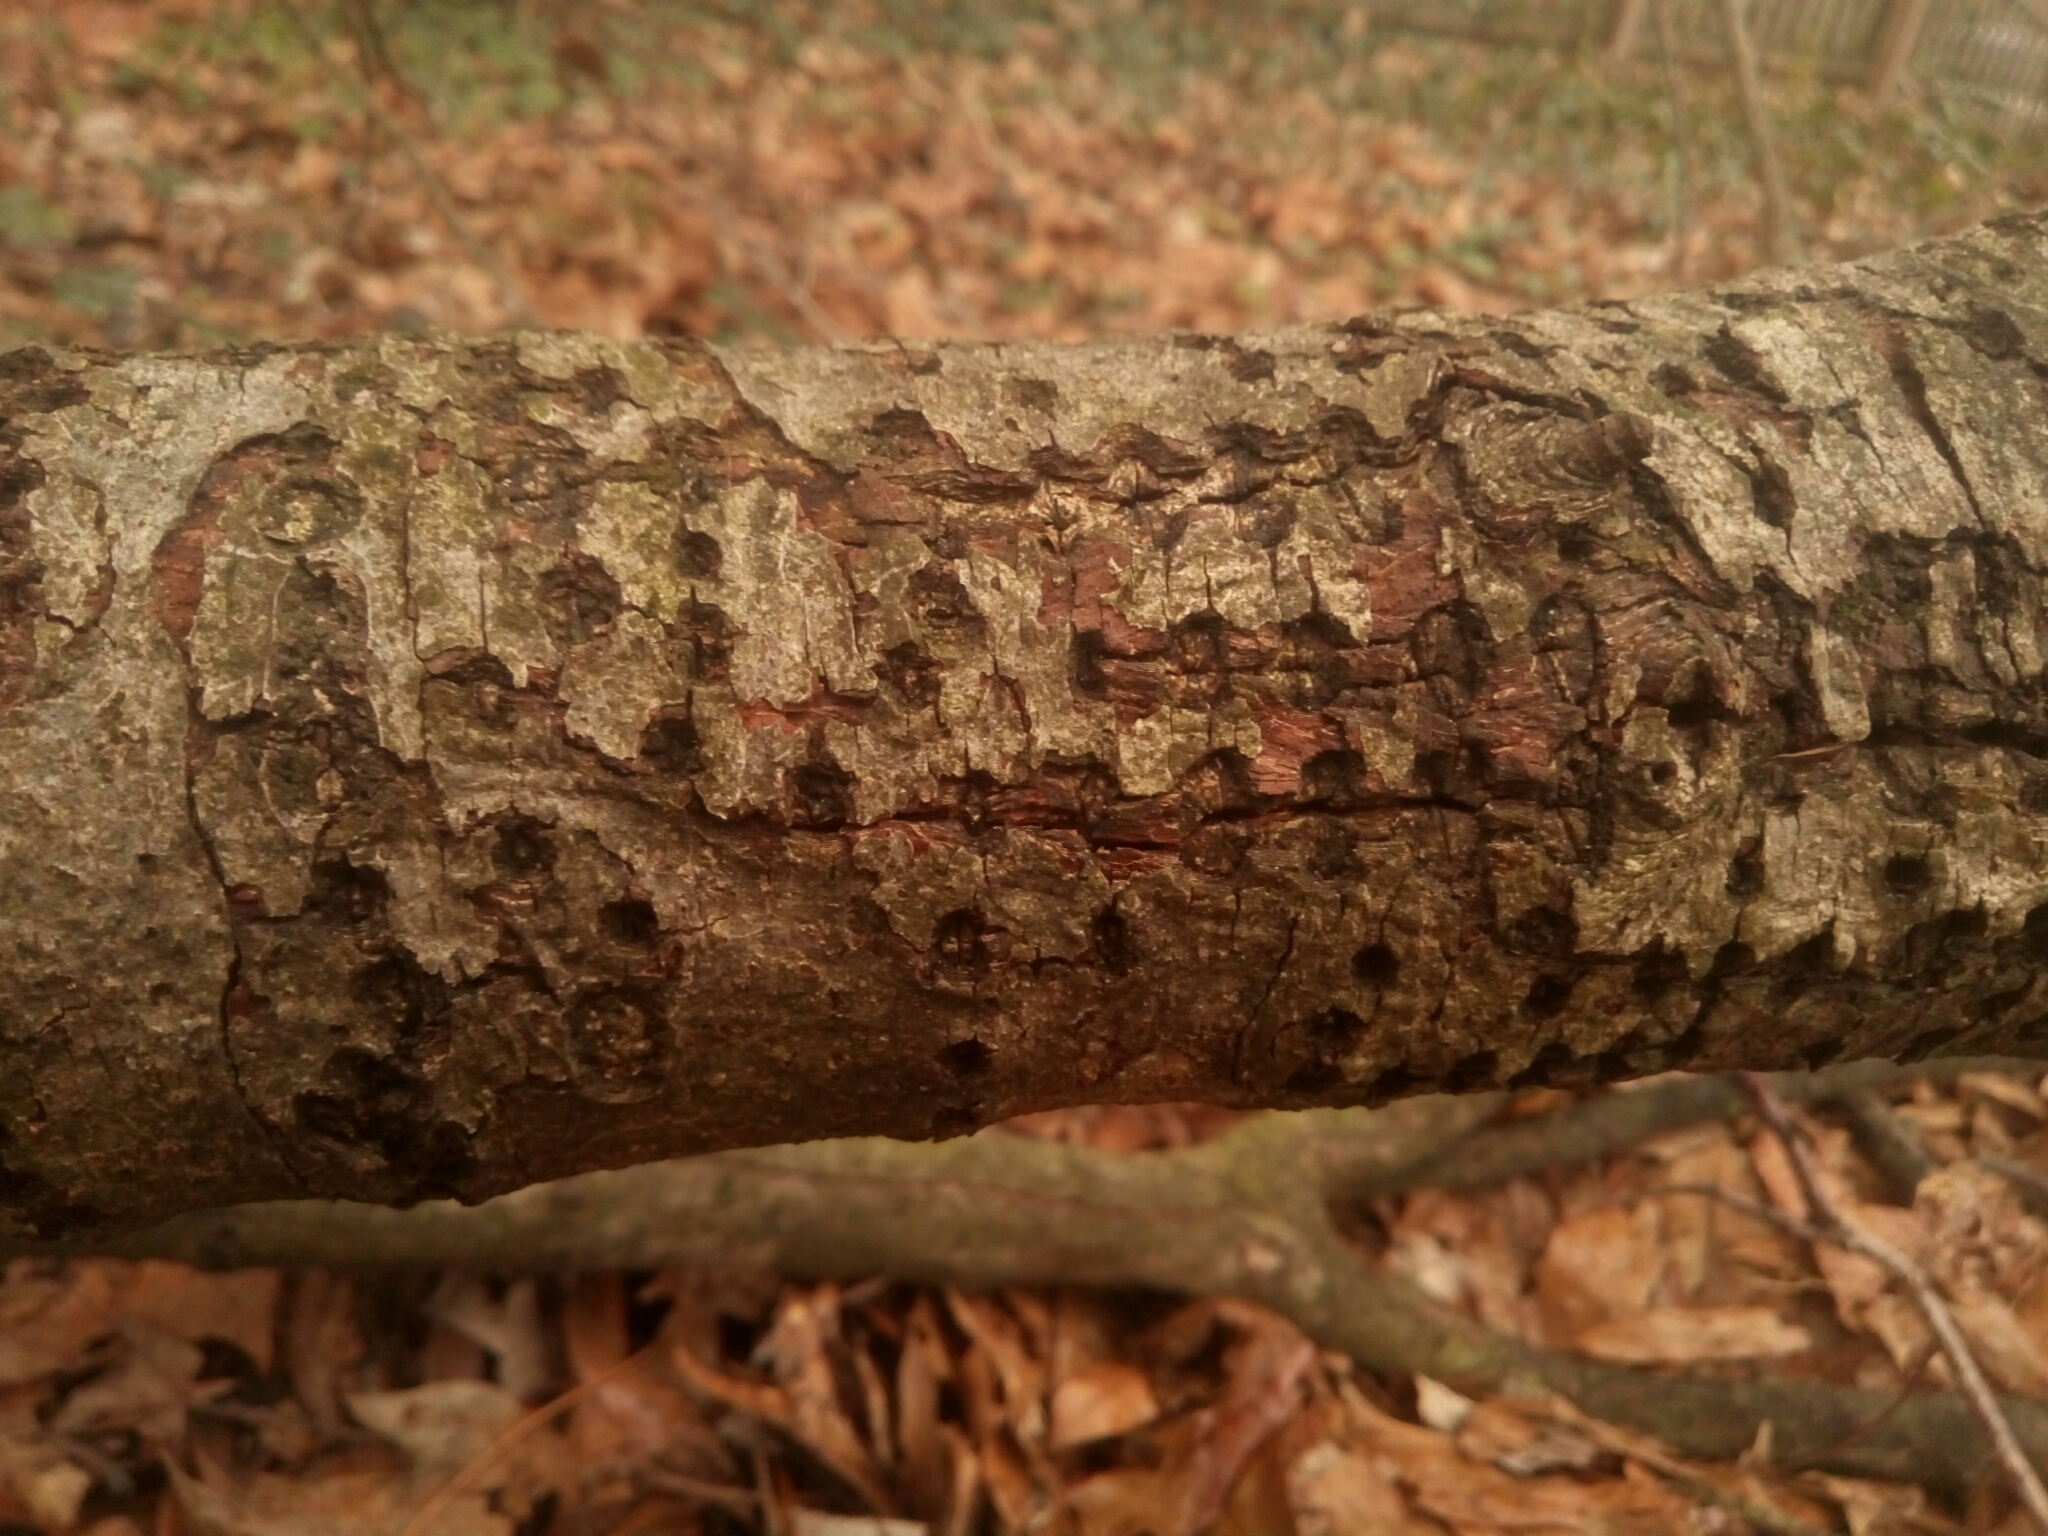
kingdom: Animalia
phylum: Chordata
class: Aves
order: Piciformes
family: Picidae
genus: Sphyrapicus
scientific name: Sphyrapicus varius
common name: Yellow-bellied sapsucker
